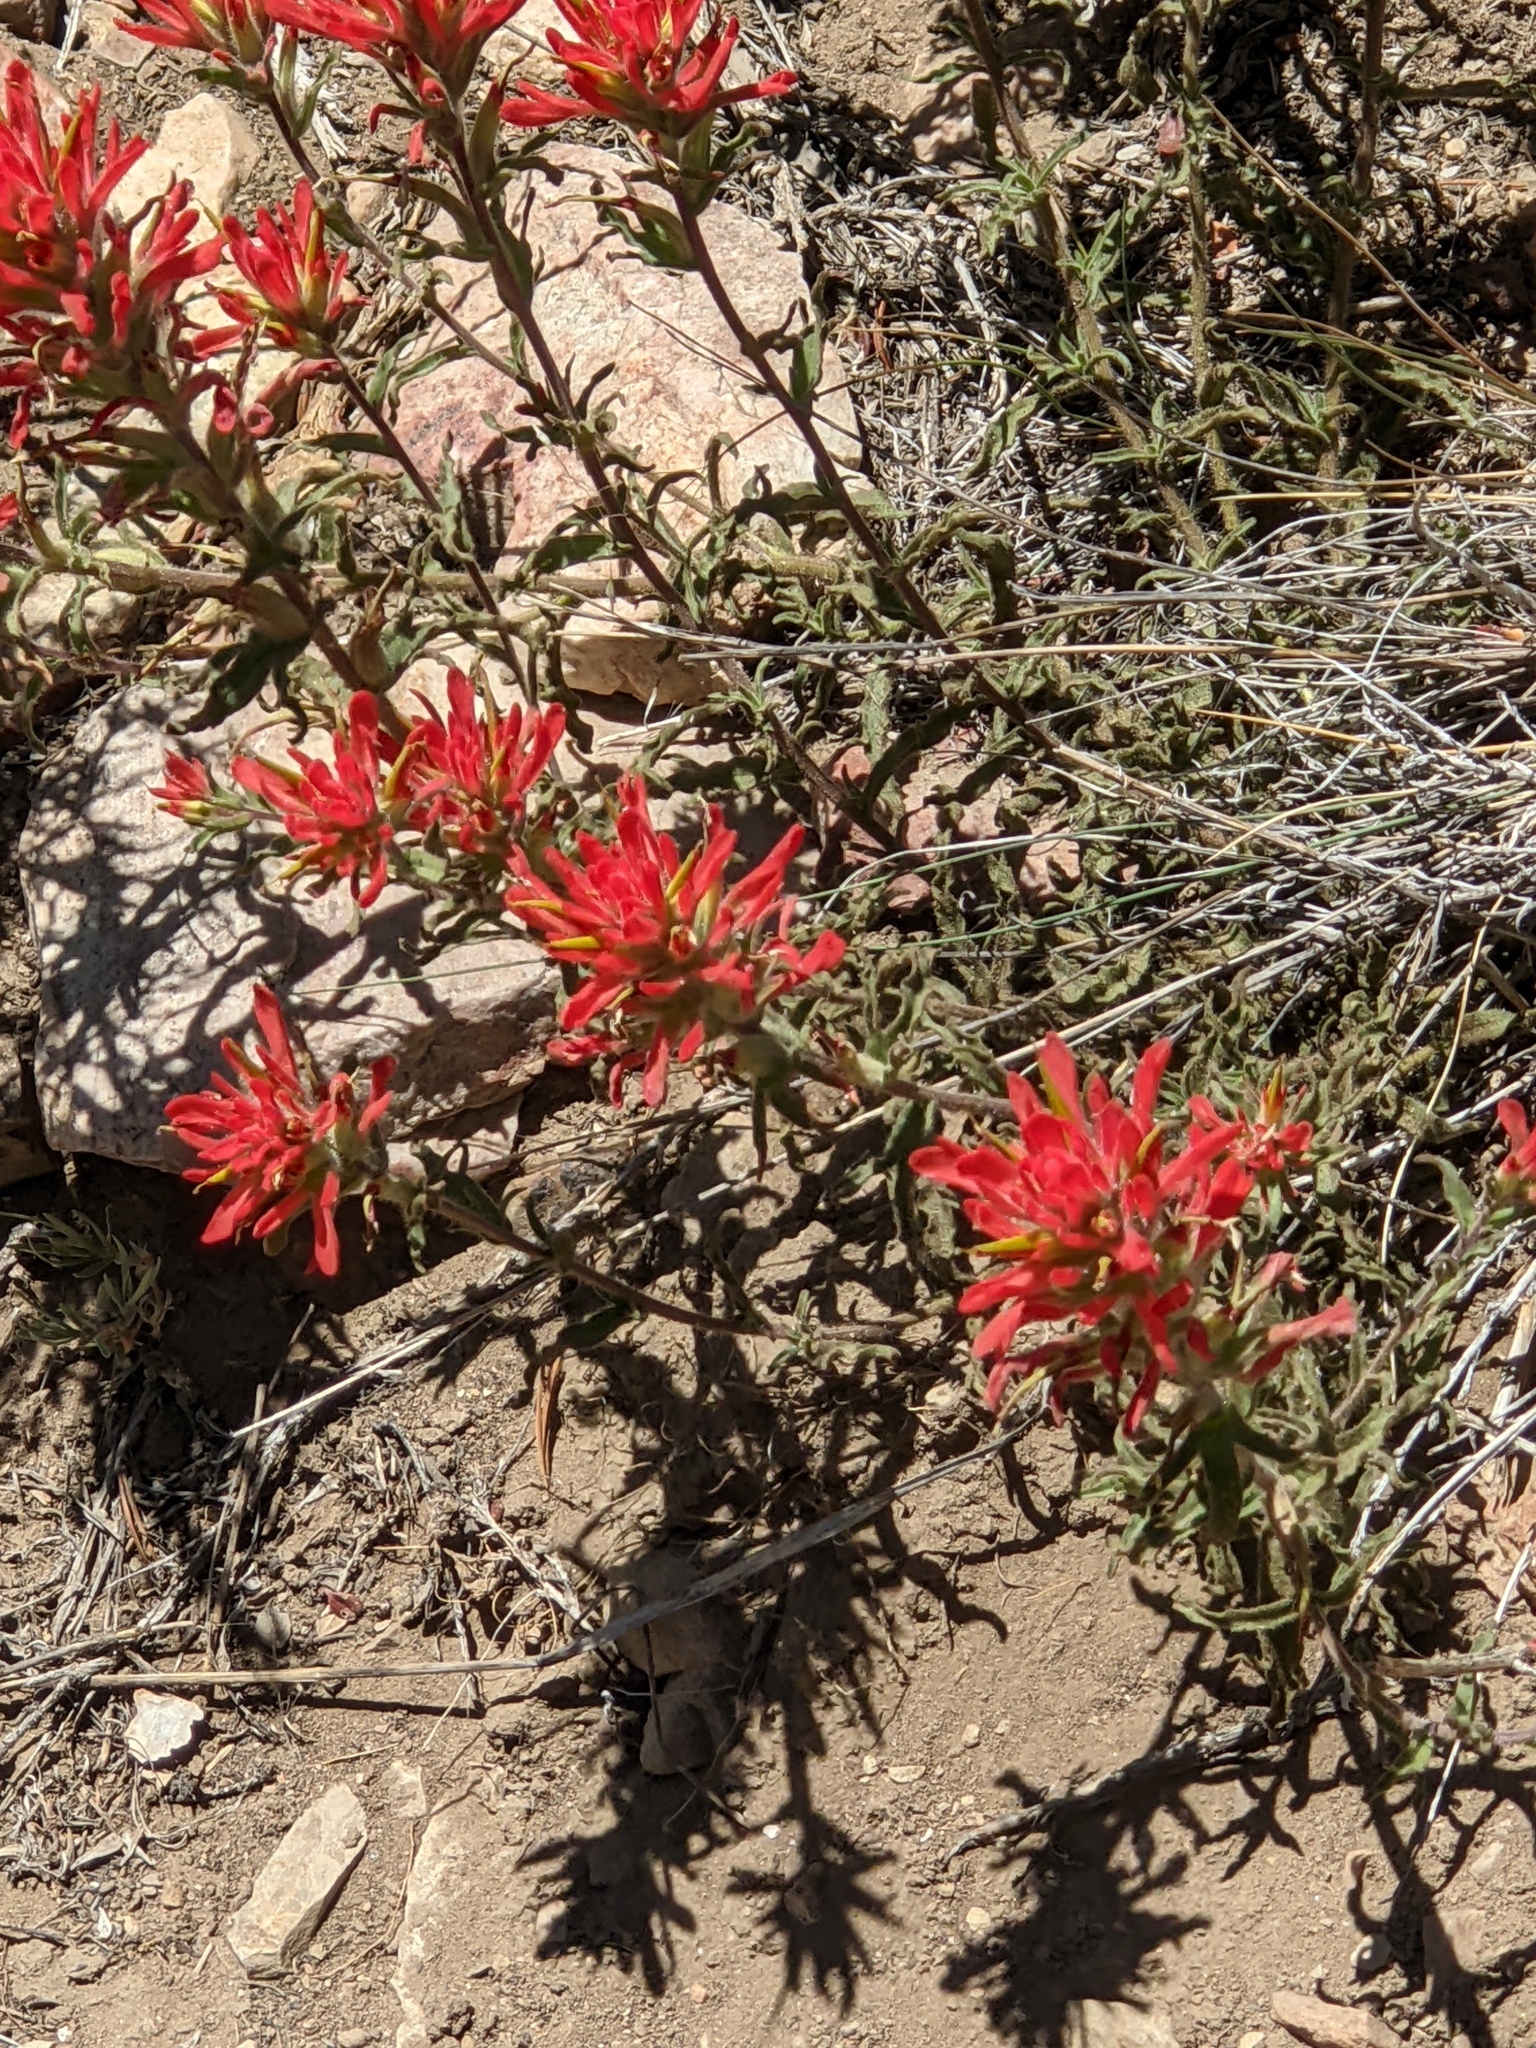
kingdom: Plantae
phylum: Tracheophyta
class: Magnoliopsida
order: Lamiales
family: Orobanchaceae
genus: Castilleja
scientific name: Castilleja applegatei
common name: Wavy-leaf paintbrush
